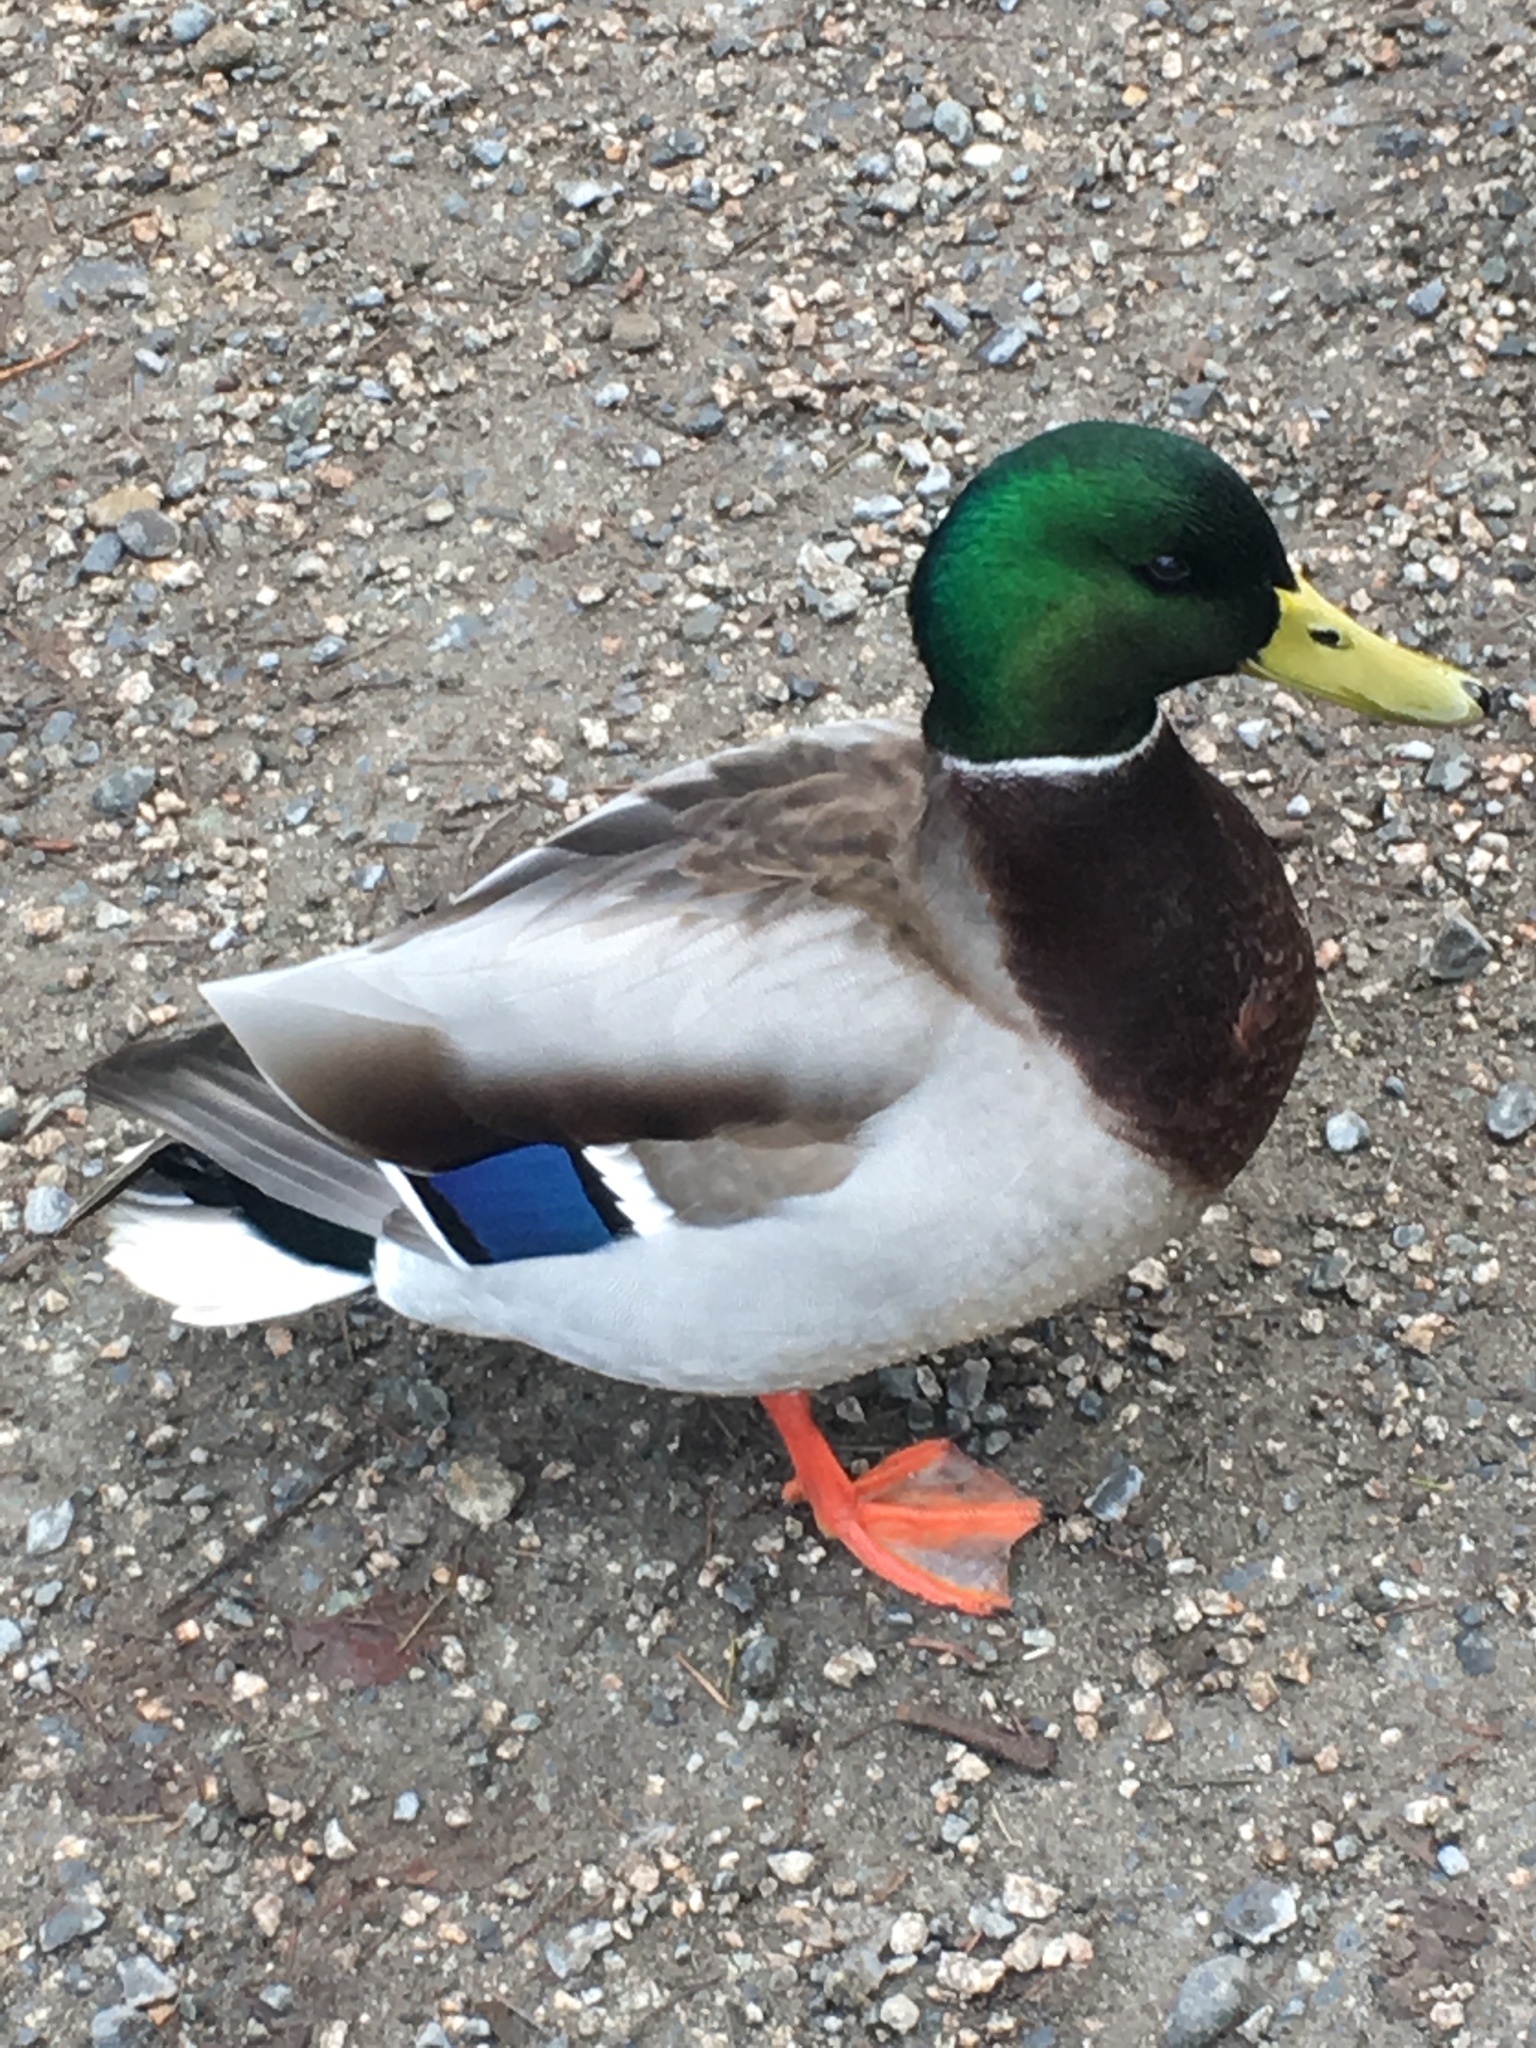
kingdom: Animalia
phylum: Chordata
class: Aves
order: Anseriformes
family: Anatidae
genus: Anas
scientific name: Anas platyrhynchos
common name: Mallard
